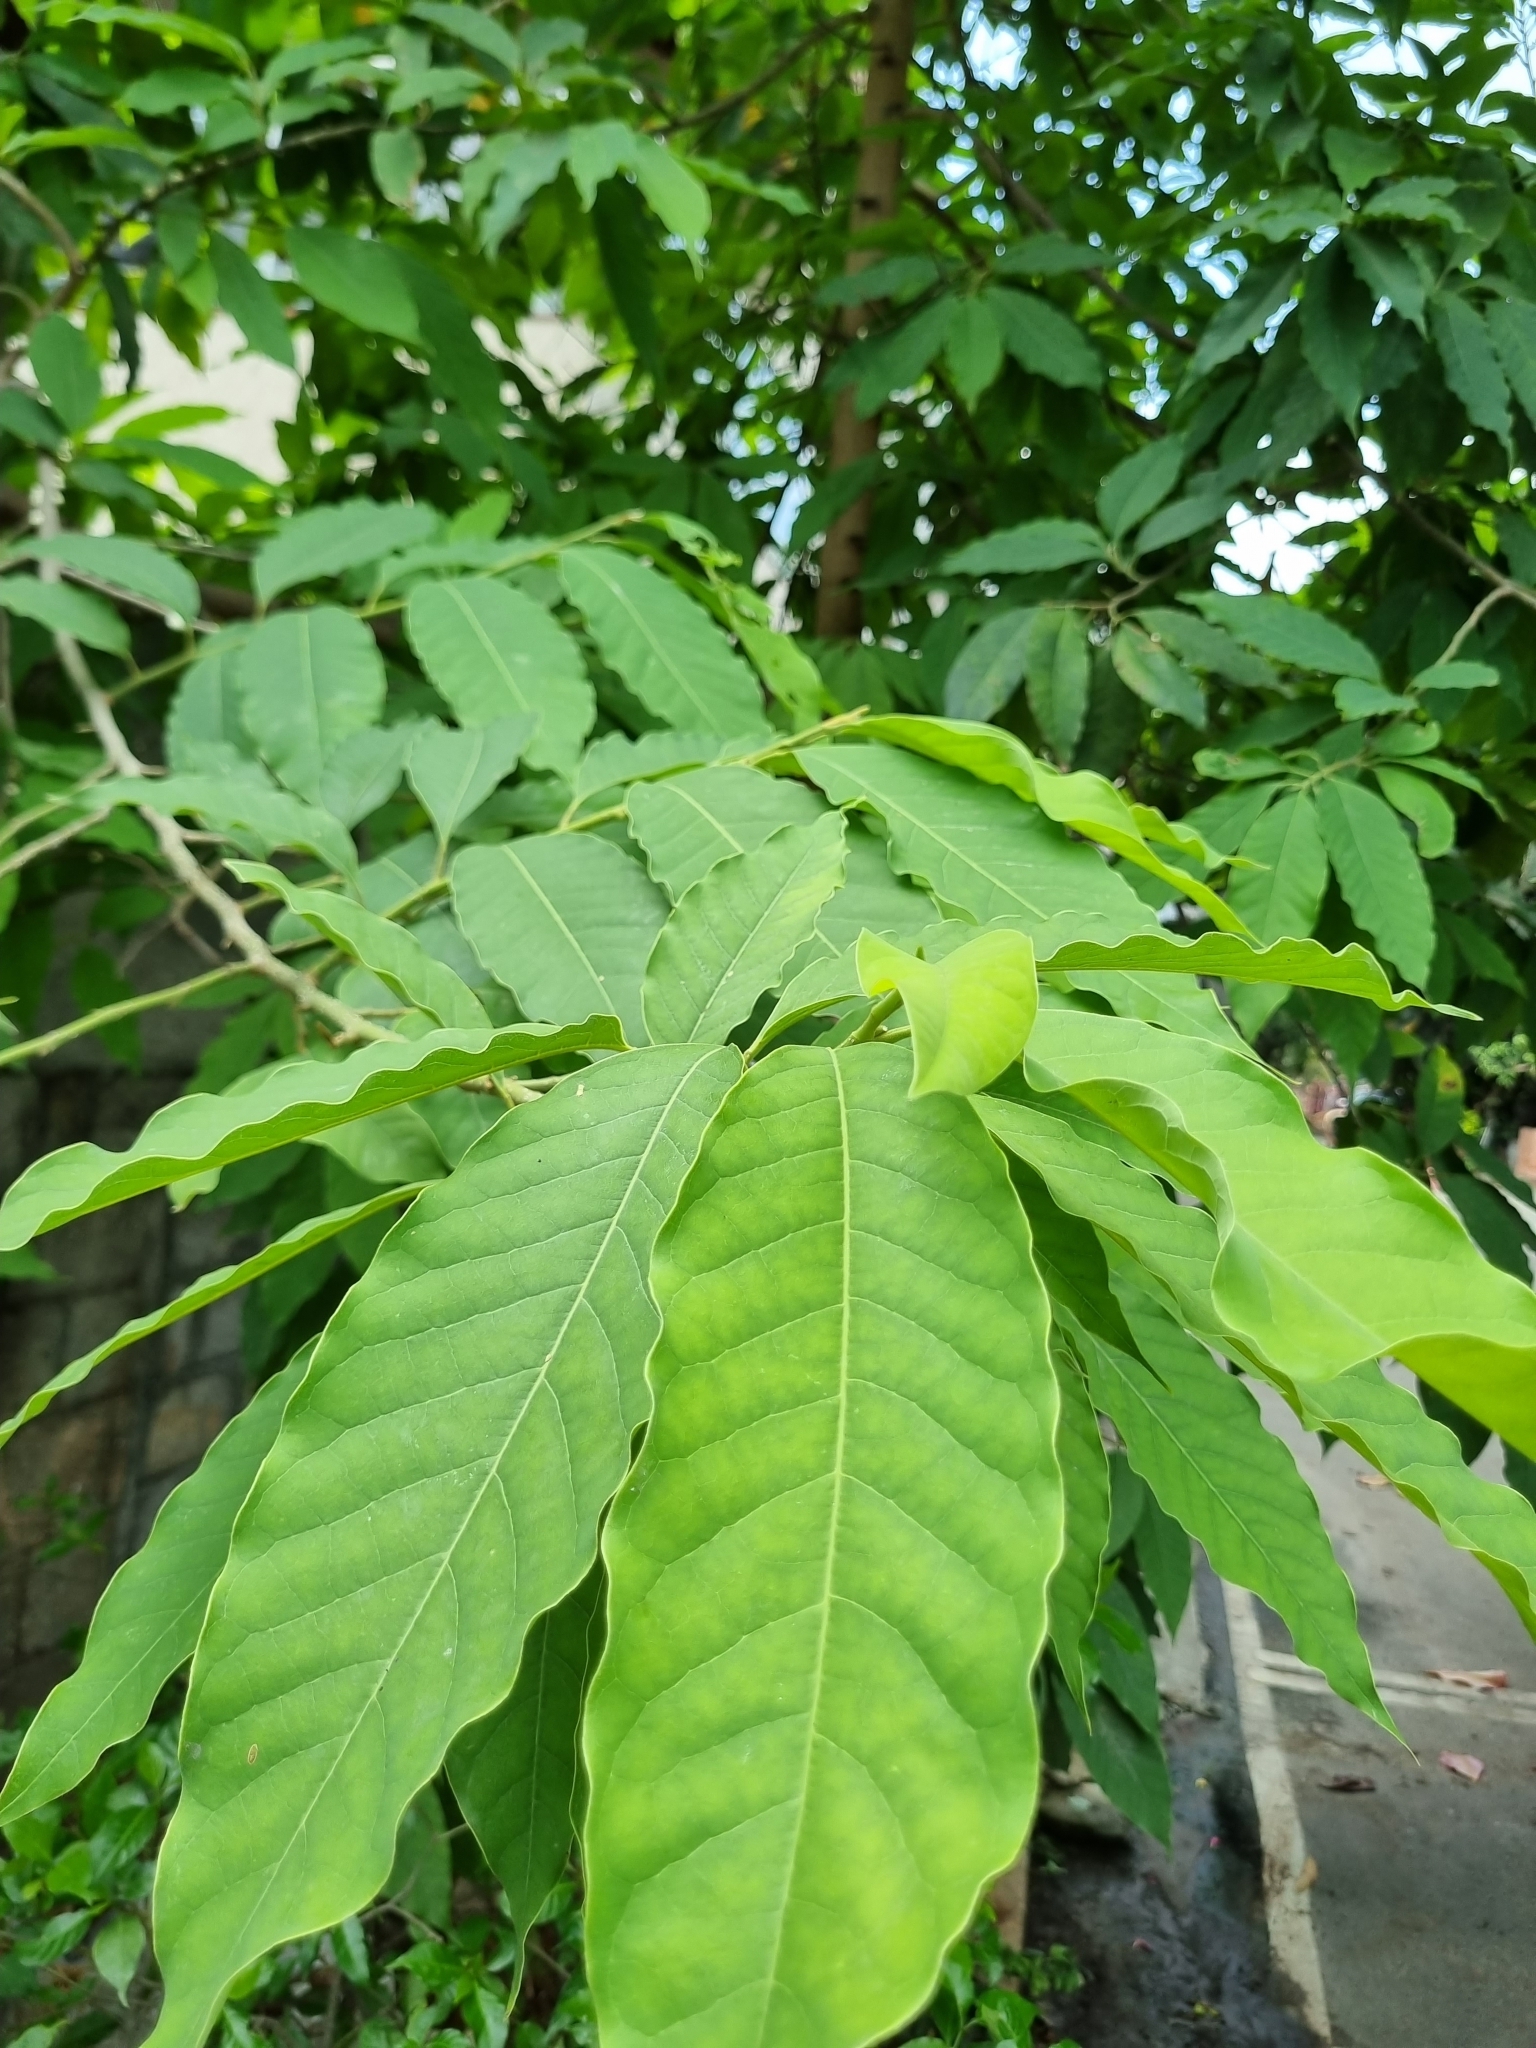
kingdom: Plantae
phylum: Tracheophyta
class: Magnoliopsida
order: Magnoliales
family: Magnoliaceae
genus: Magnolia
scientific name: Magnolia champaca
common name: Champak
